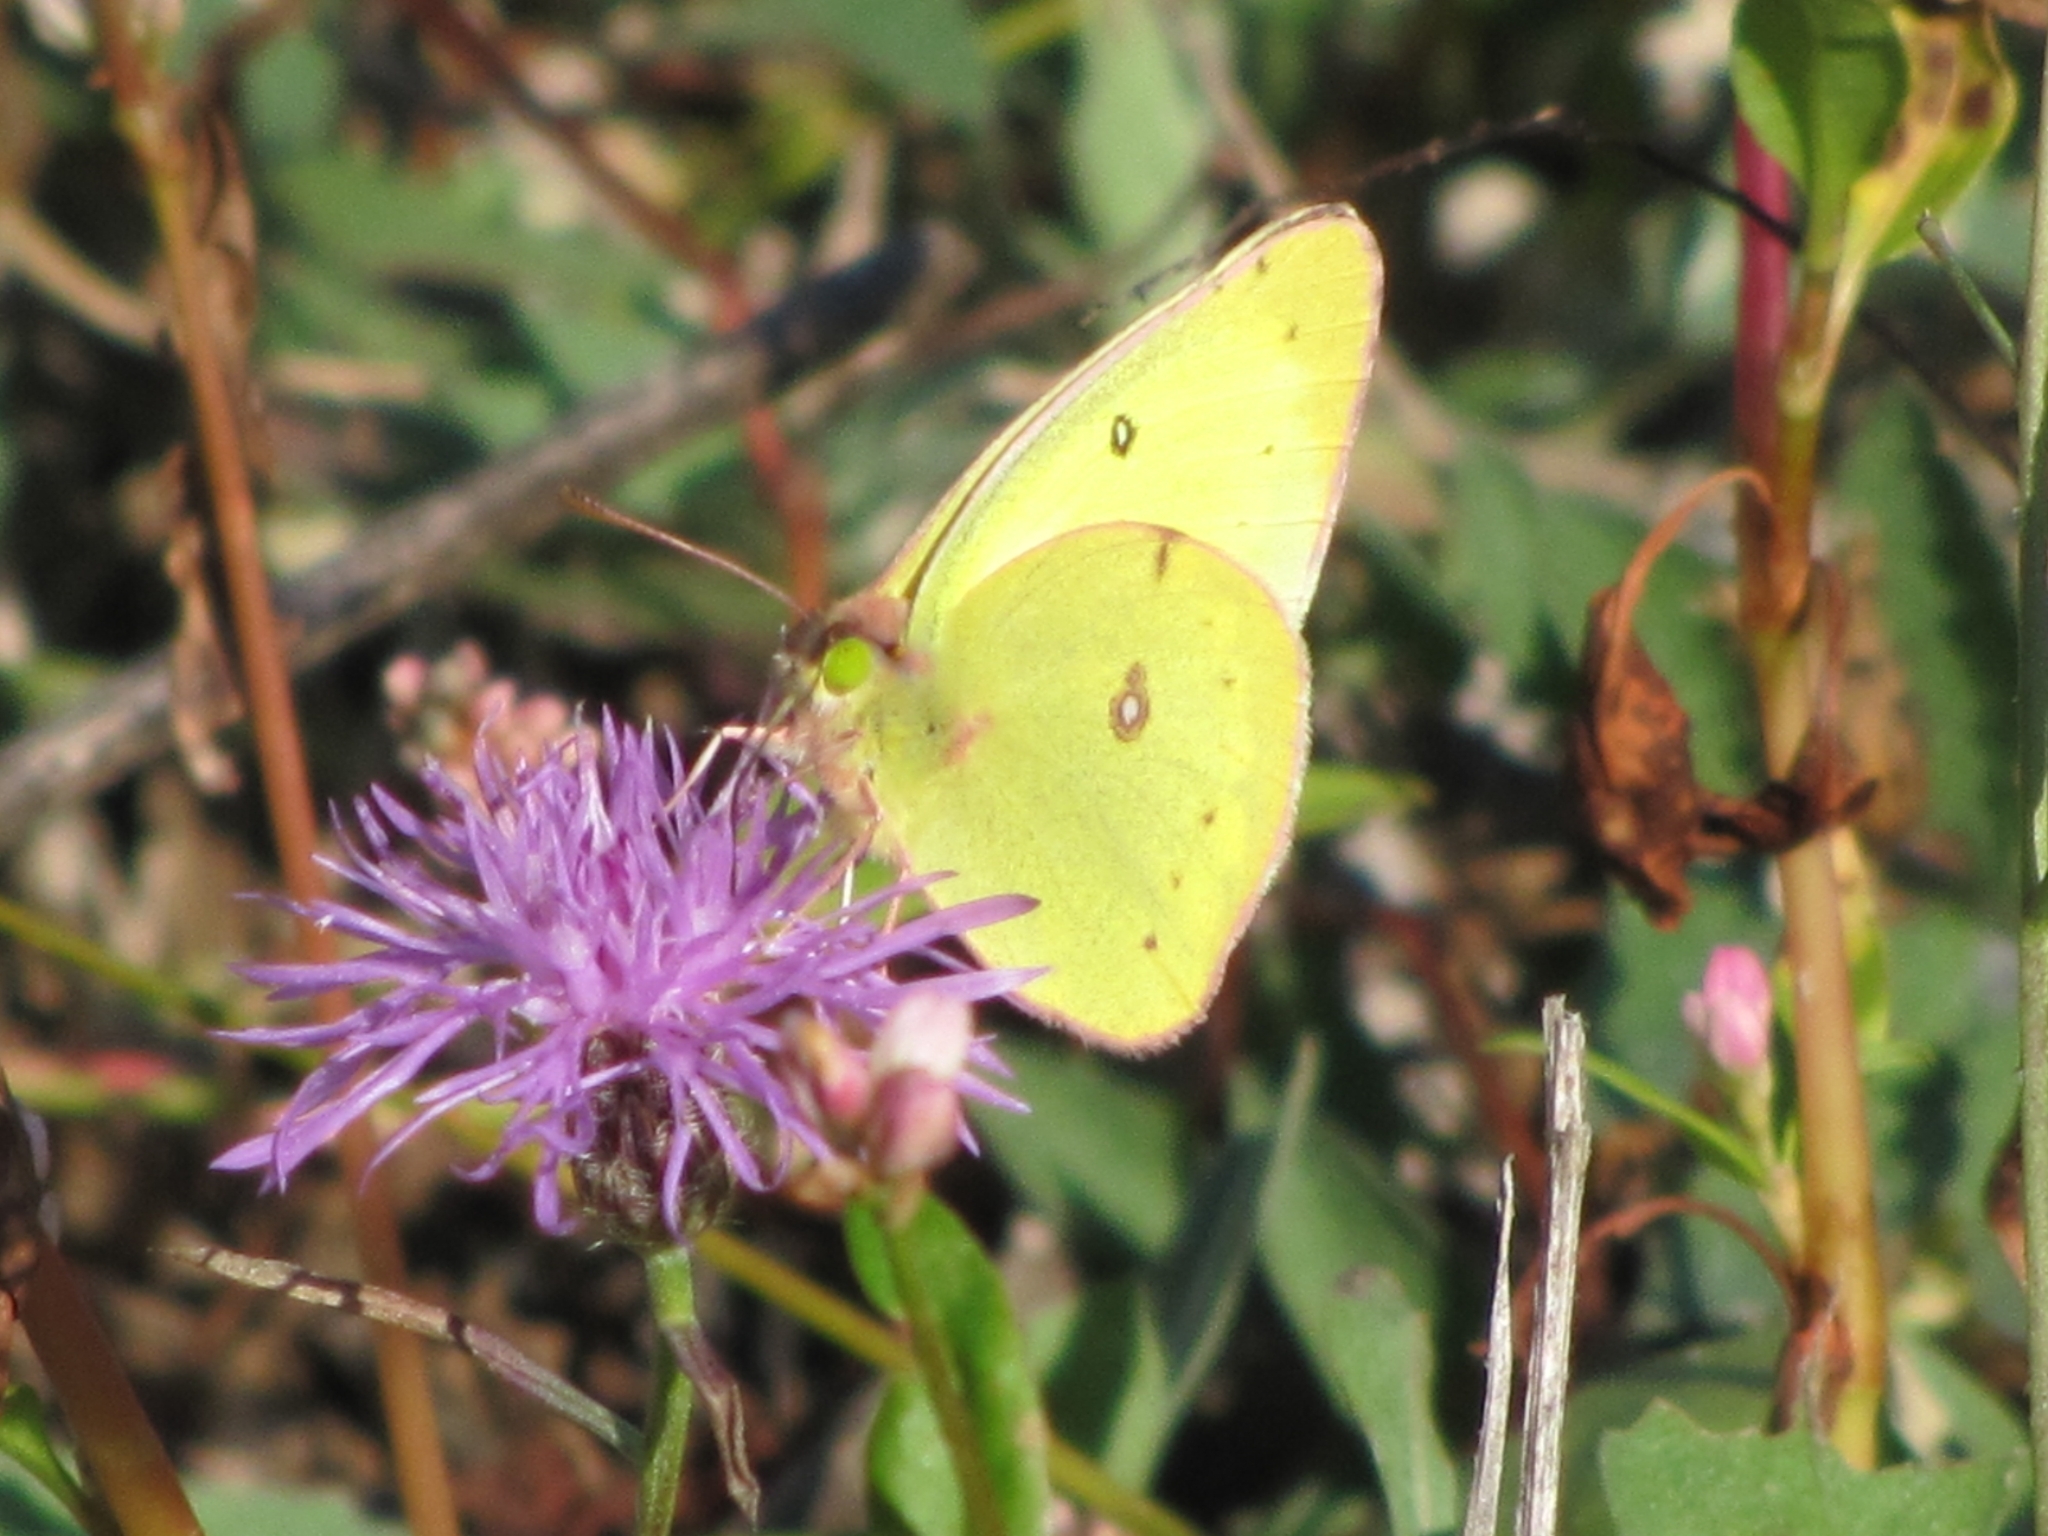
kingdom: Animalia
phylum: Arthropoda
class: Insecta
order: Lepidoptera
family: Pieridae
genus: Colias
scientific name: Colias philodice
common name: Clouded sulphur
